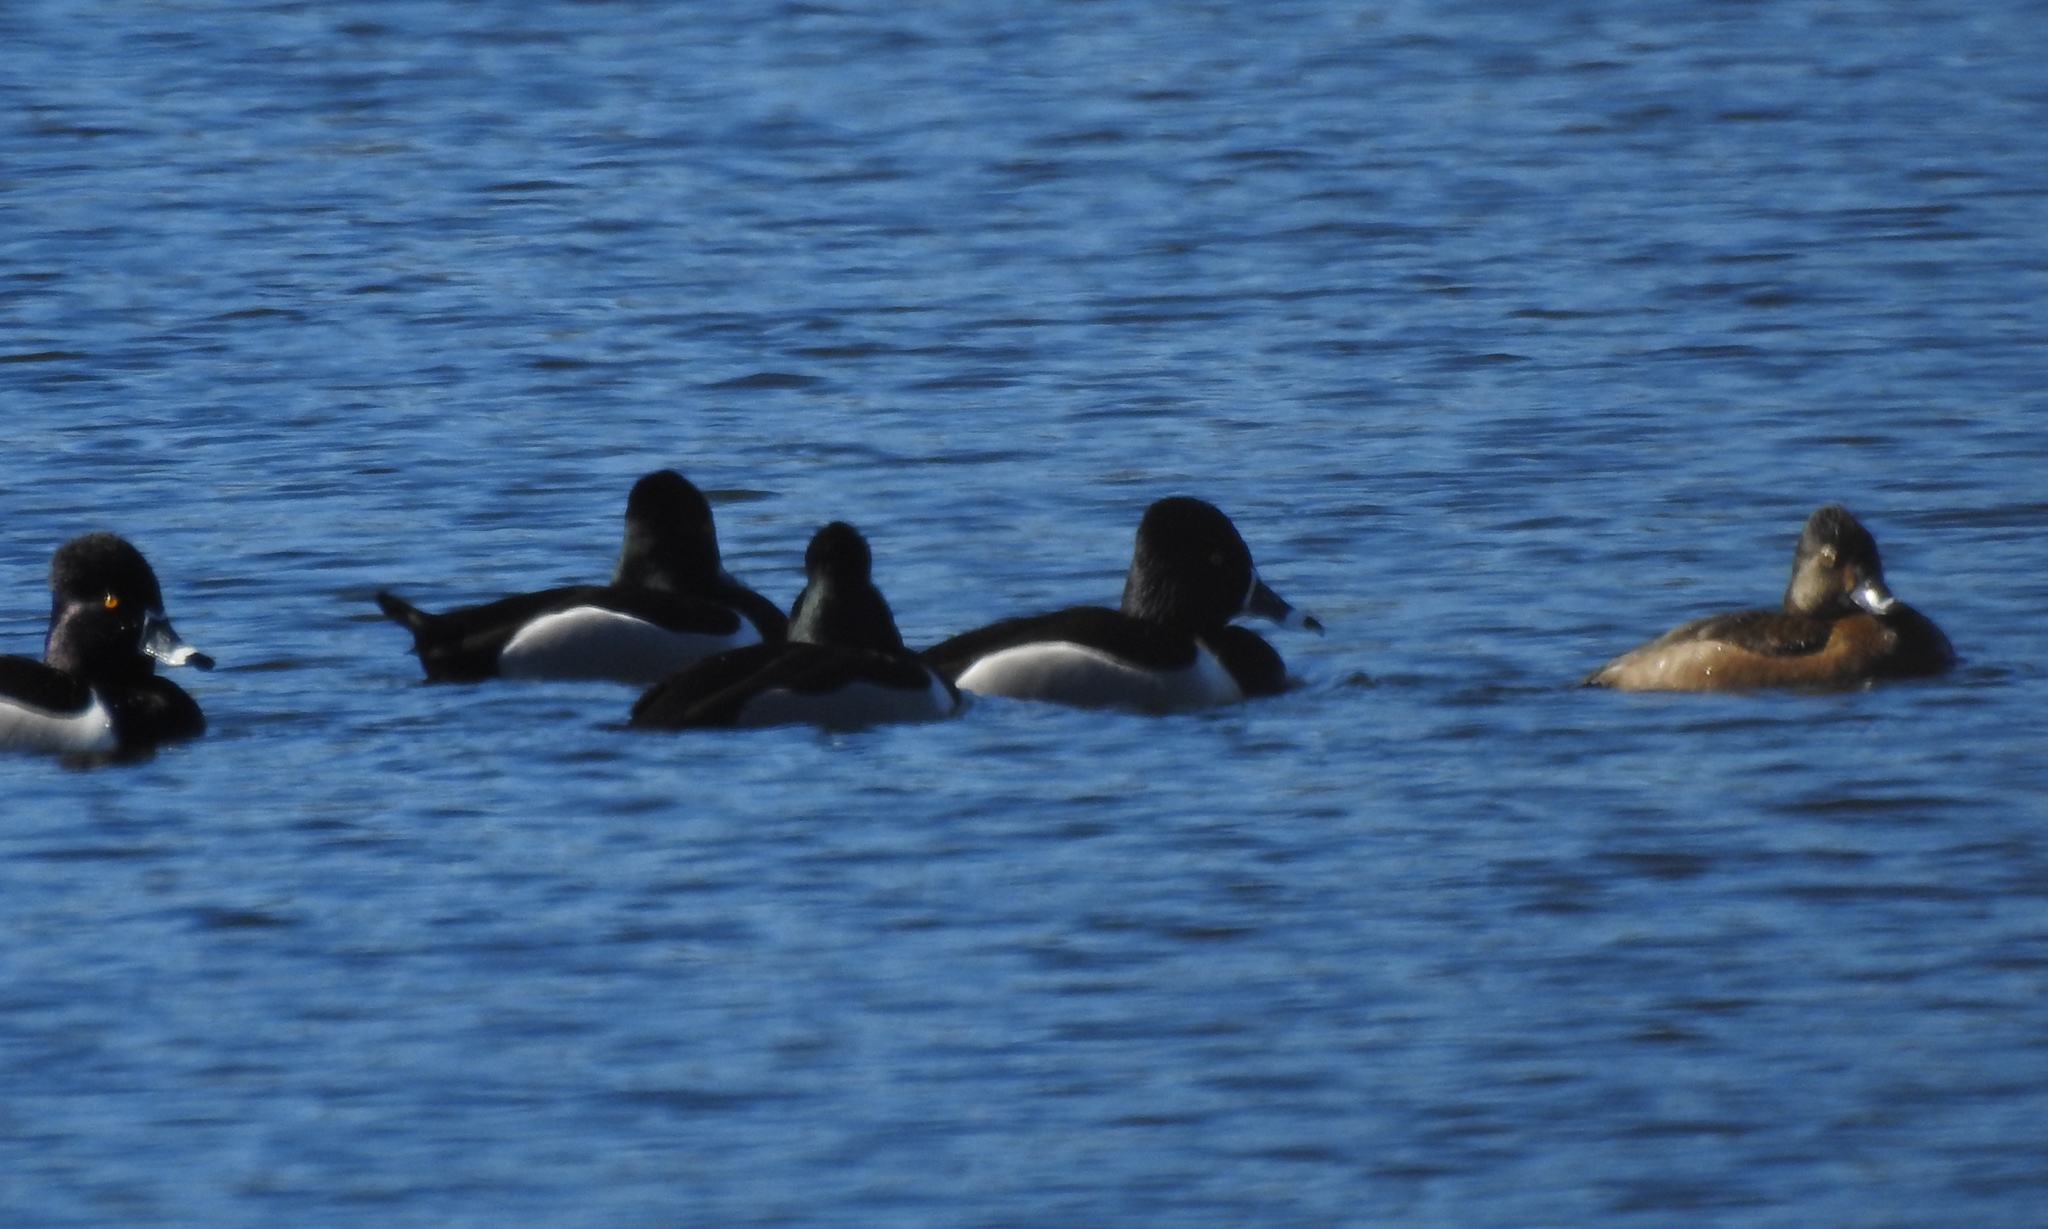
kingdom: Animalia
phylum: Chordata
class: Aves
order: Anseriformes
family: Anatidae
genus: Aythya
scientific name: Aythya collaris
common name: Ring-necked duck
